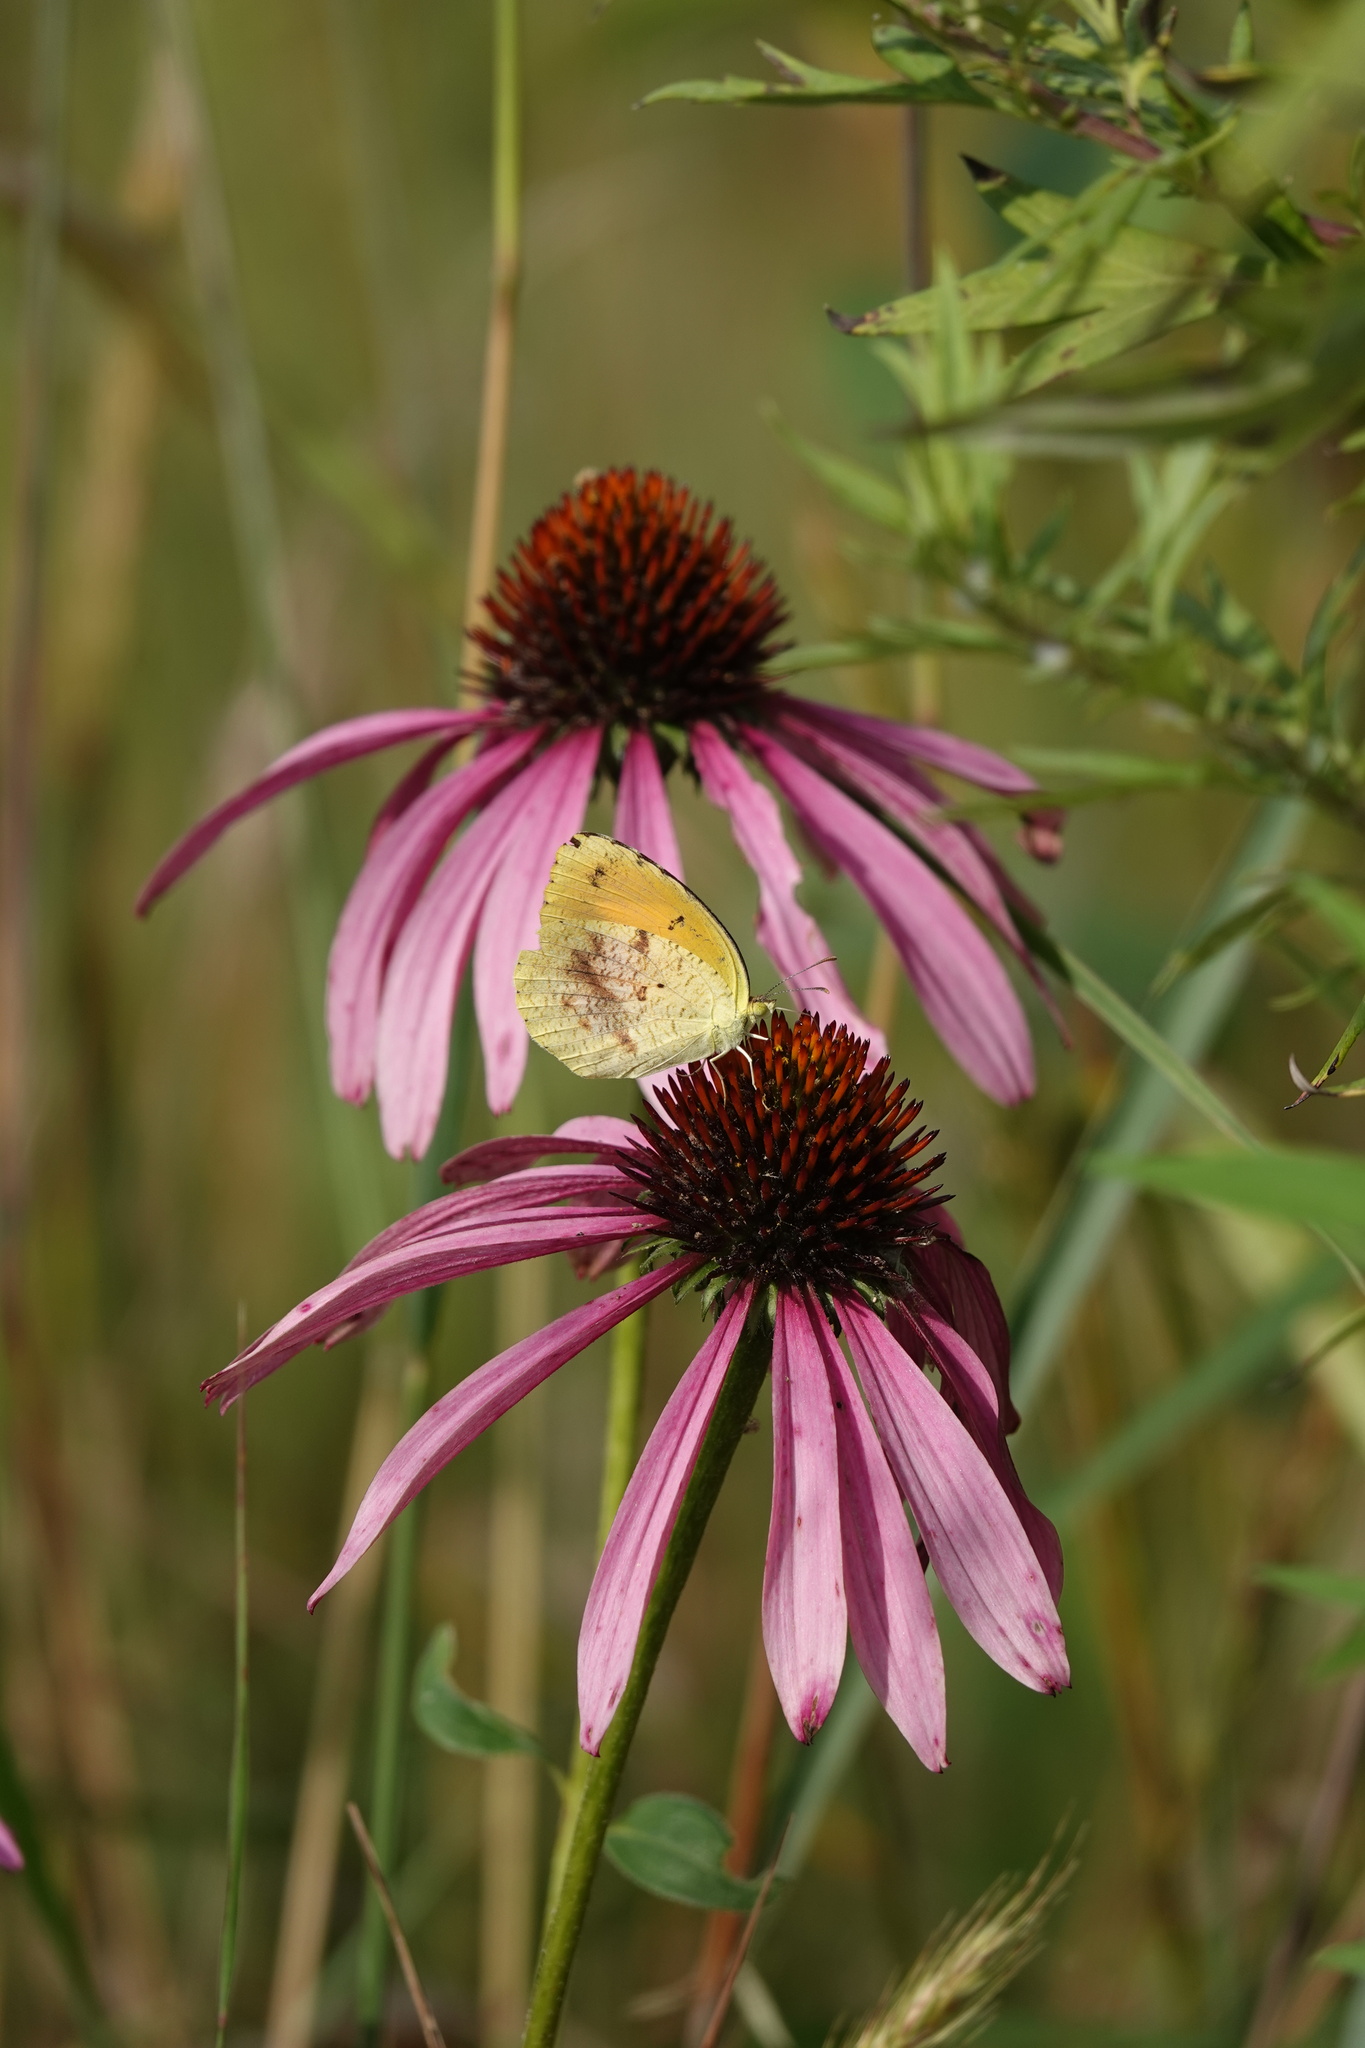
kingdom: Animalia
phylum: Arthropoda
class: Insecta
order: Lepidoptera
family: Pieridae
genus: Abaeis
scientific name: Abaeis nicippe
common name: Sleepy orange
